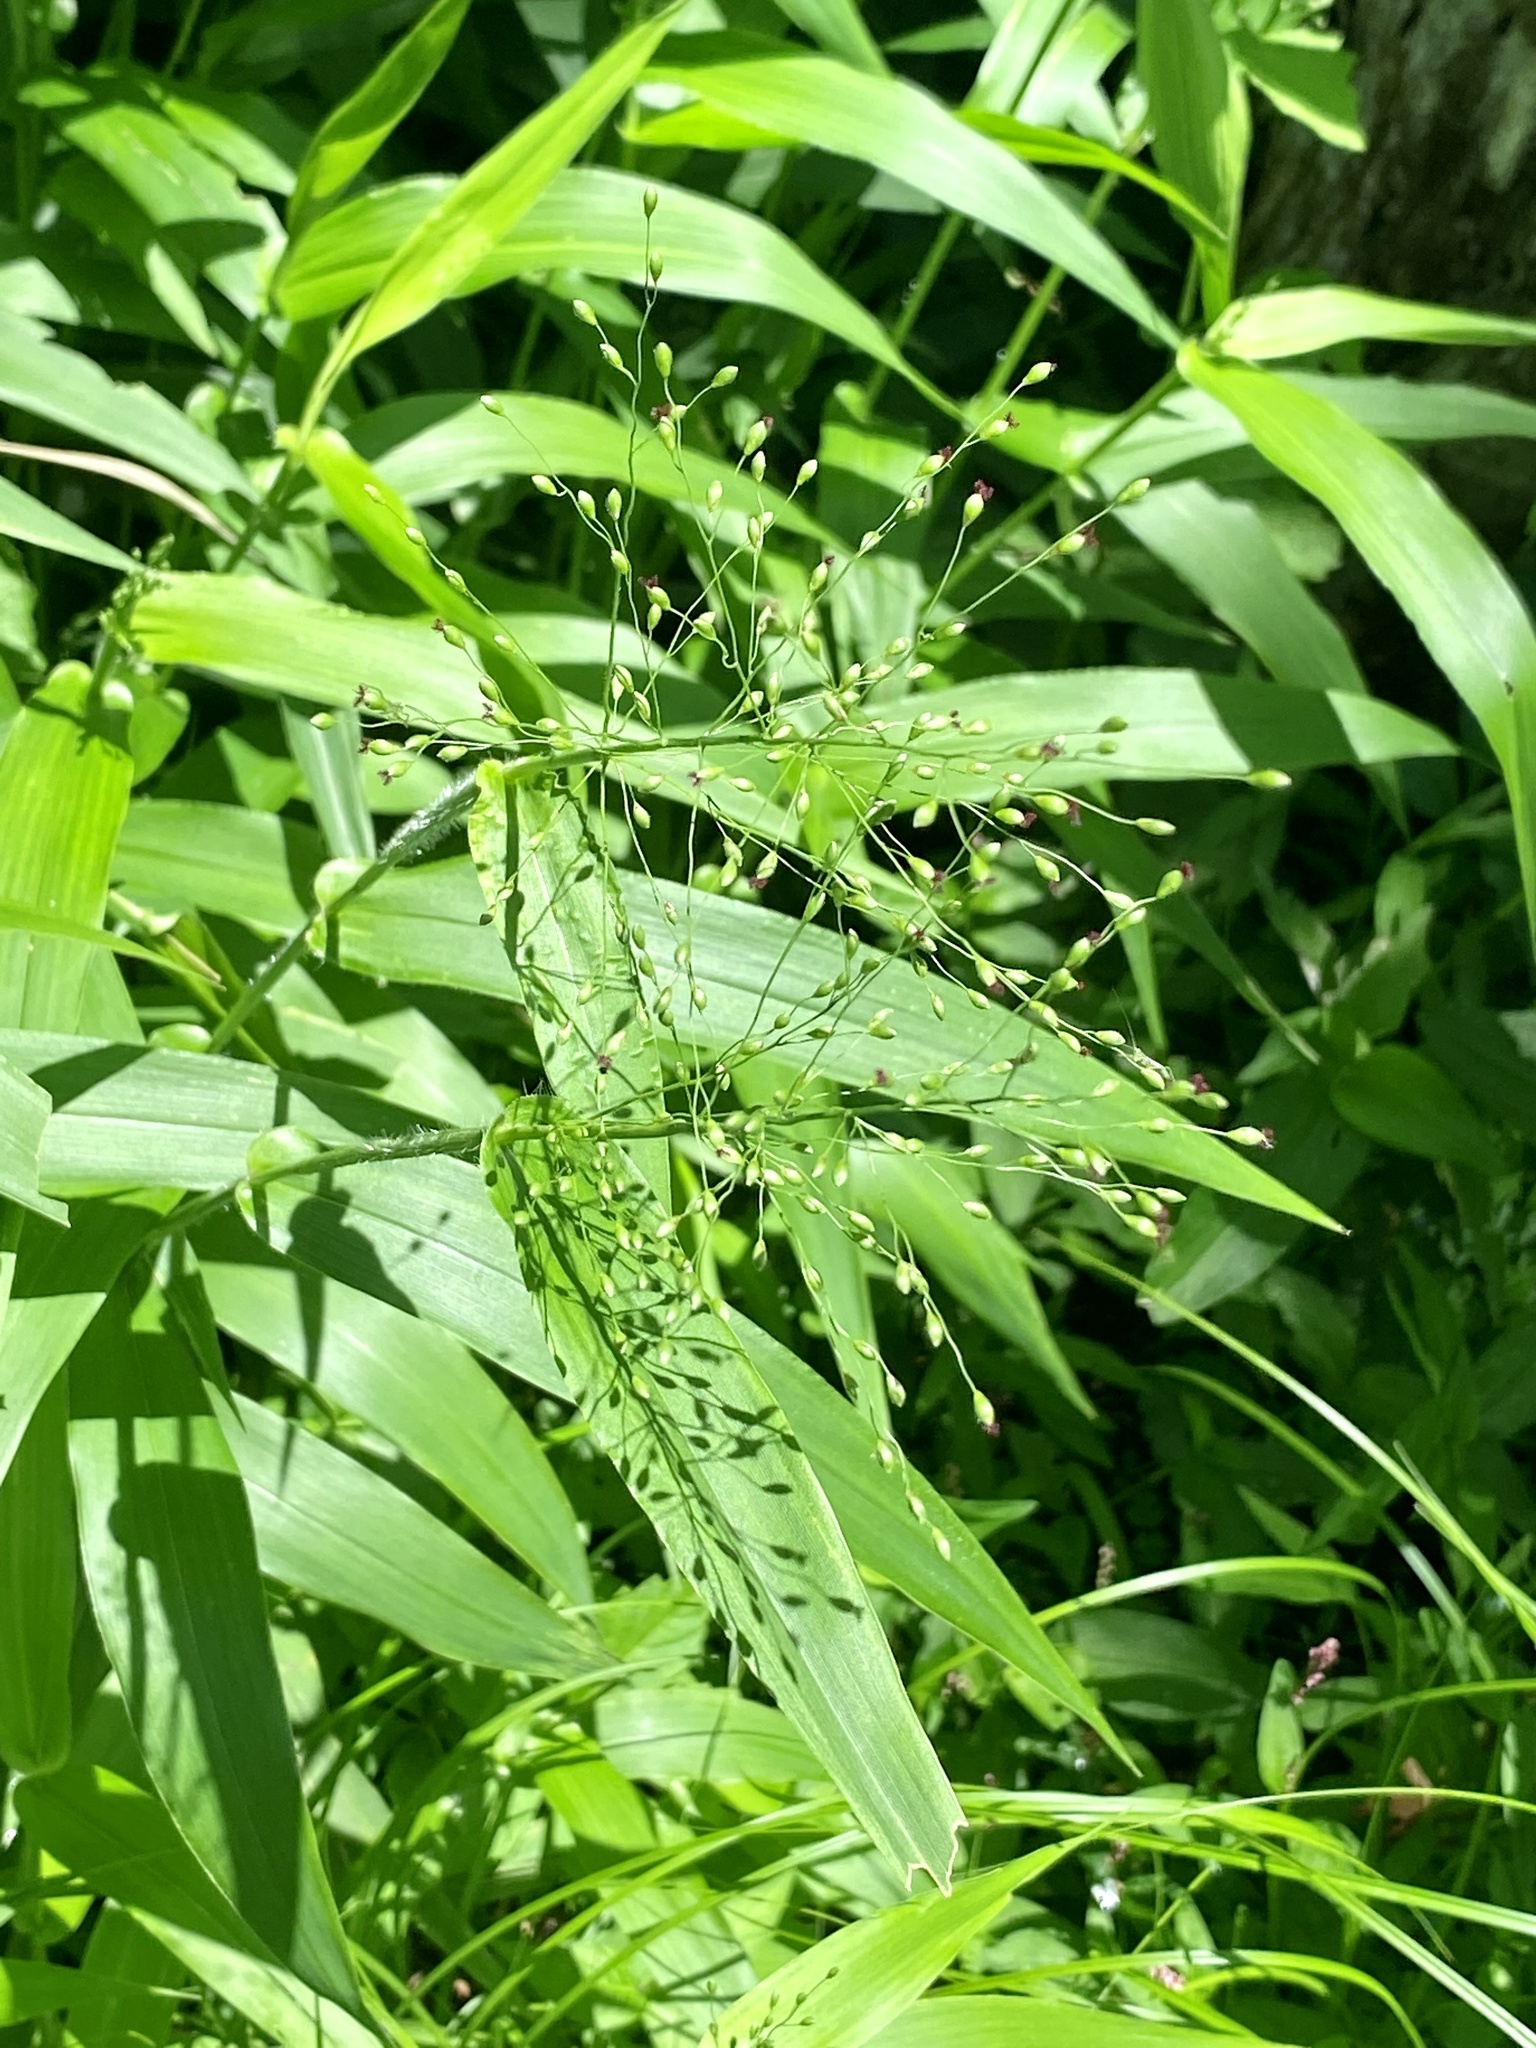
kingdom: Plantae
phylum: Tracheophyta
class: Liliopsida
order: Poales
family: Poaceae
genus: Dichanthelium
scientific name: Dichanthelium clandestinum
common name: Deer-tongue grass
